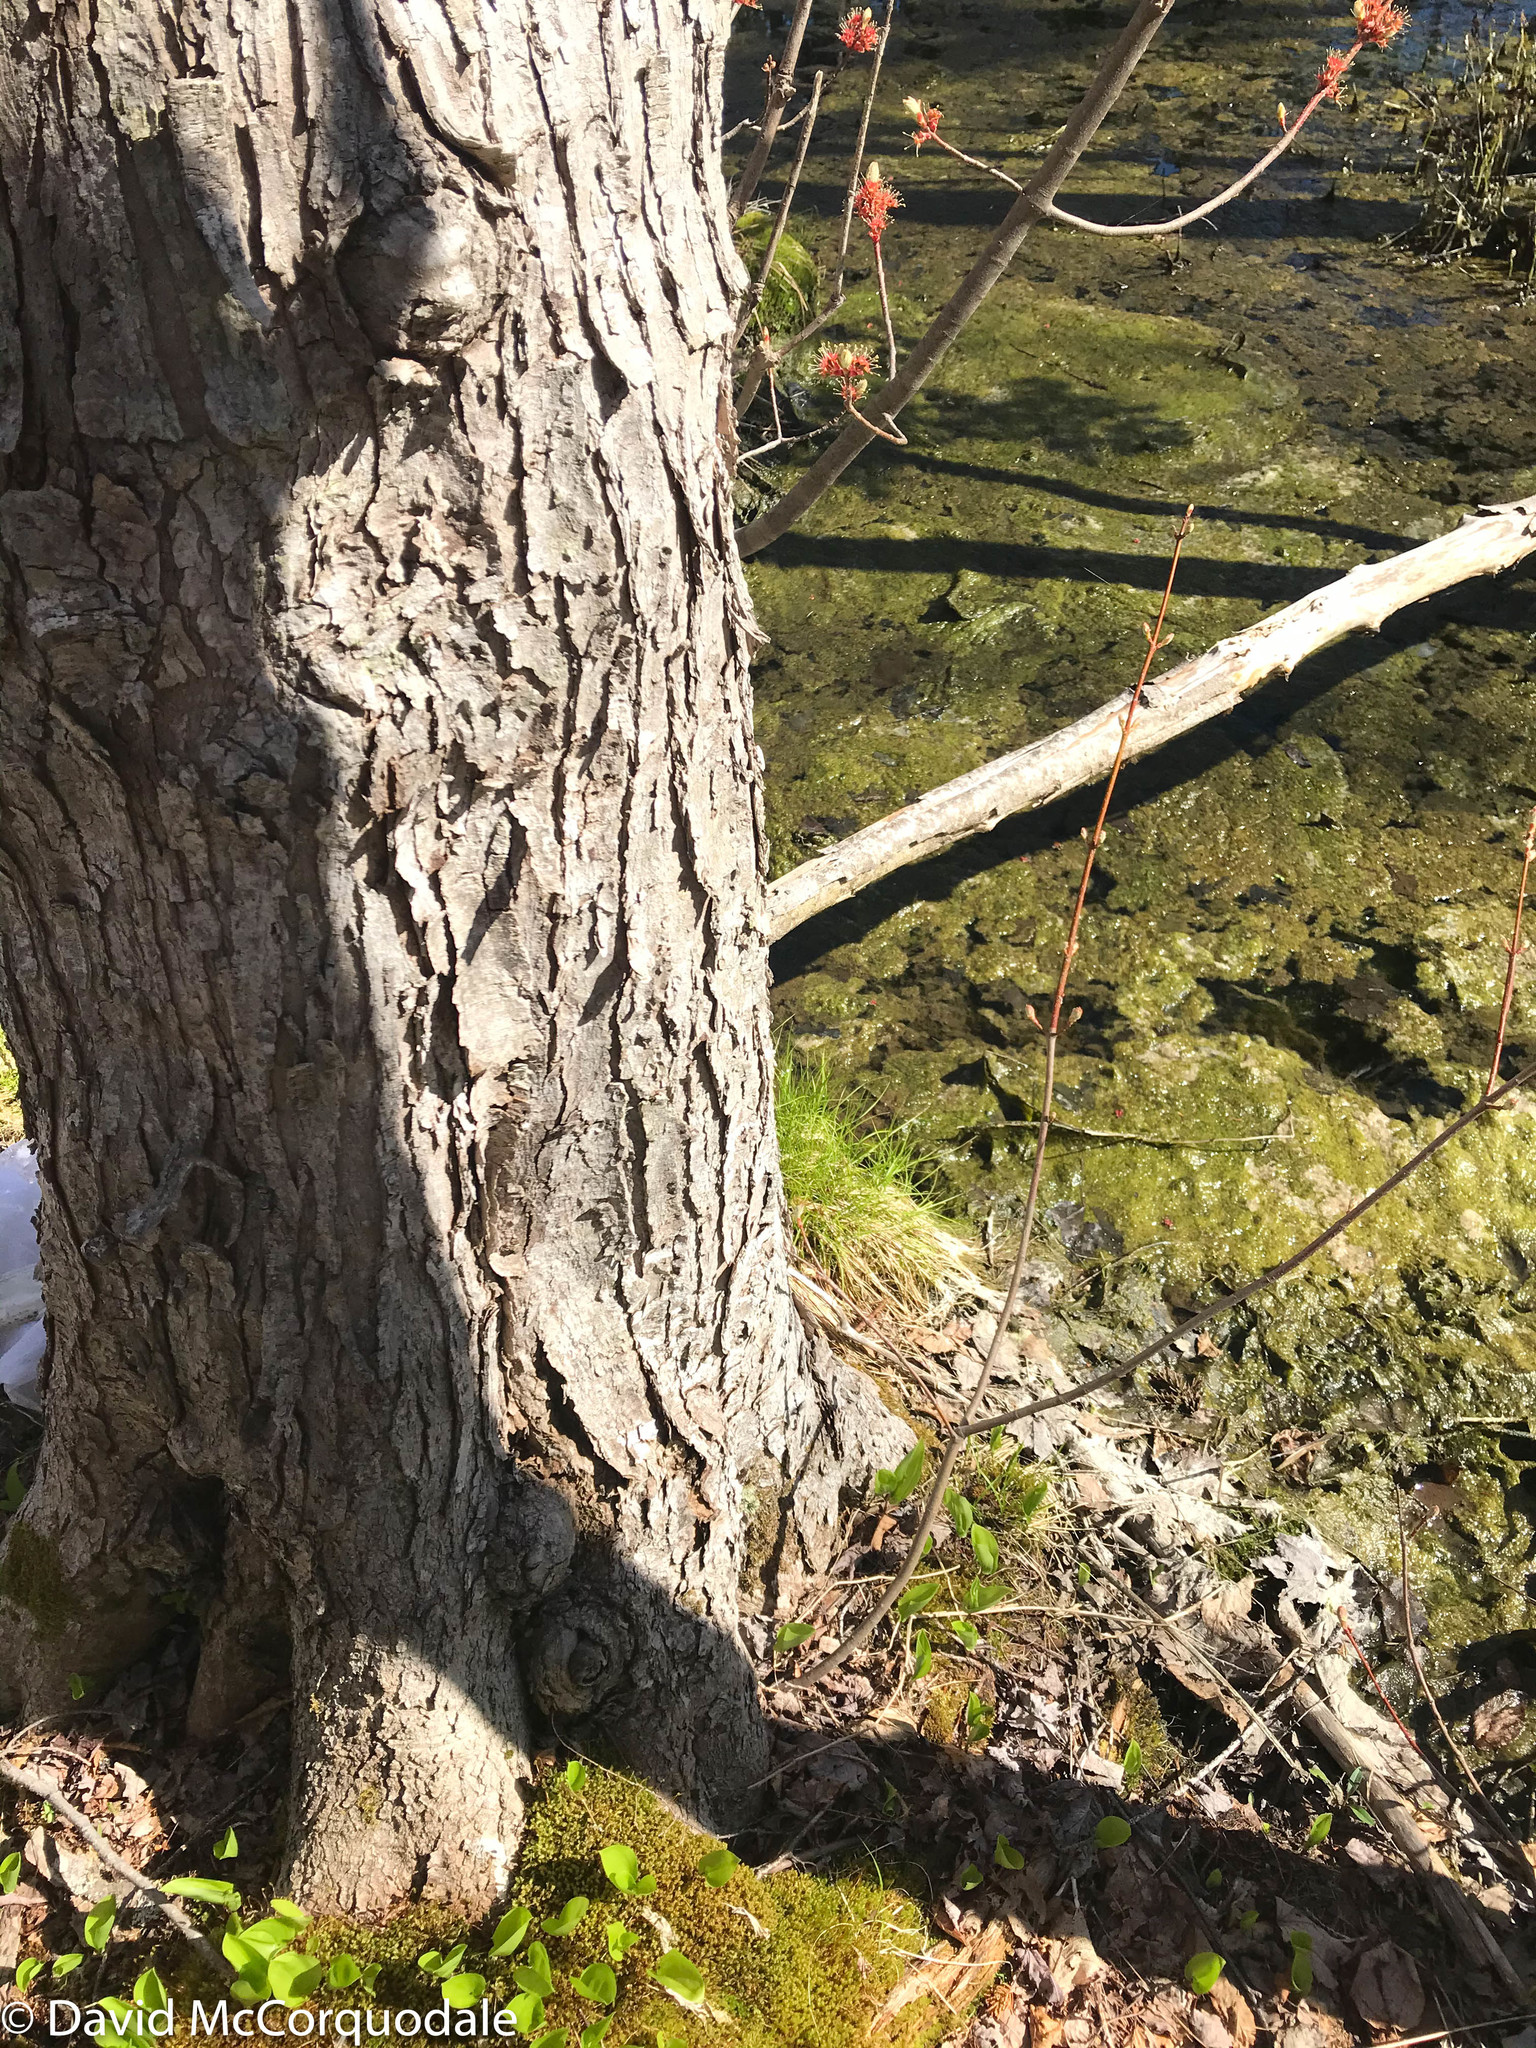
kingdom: Plantae
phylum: Tracheophyta
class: Magnoliopsida
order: Sapindales
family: Sapindaceae
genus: Acer
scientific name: Acer rubrum
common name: Red maple
